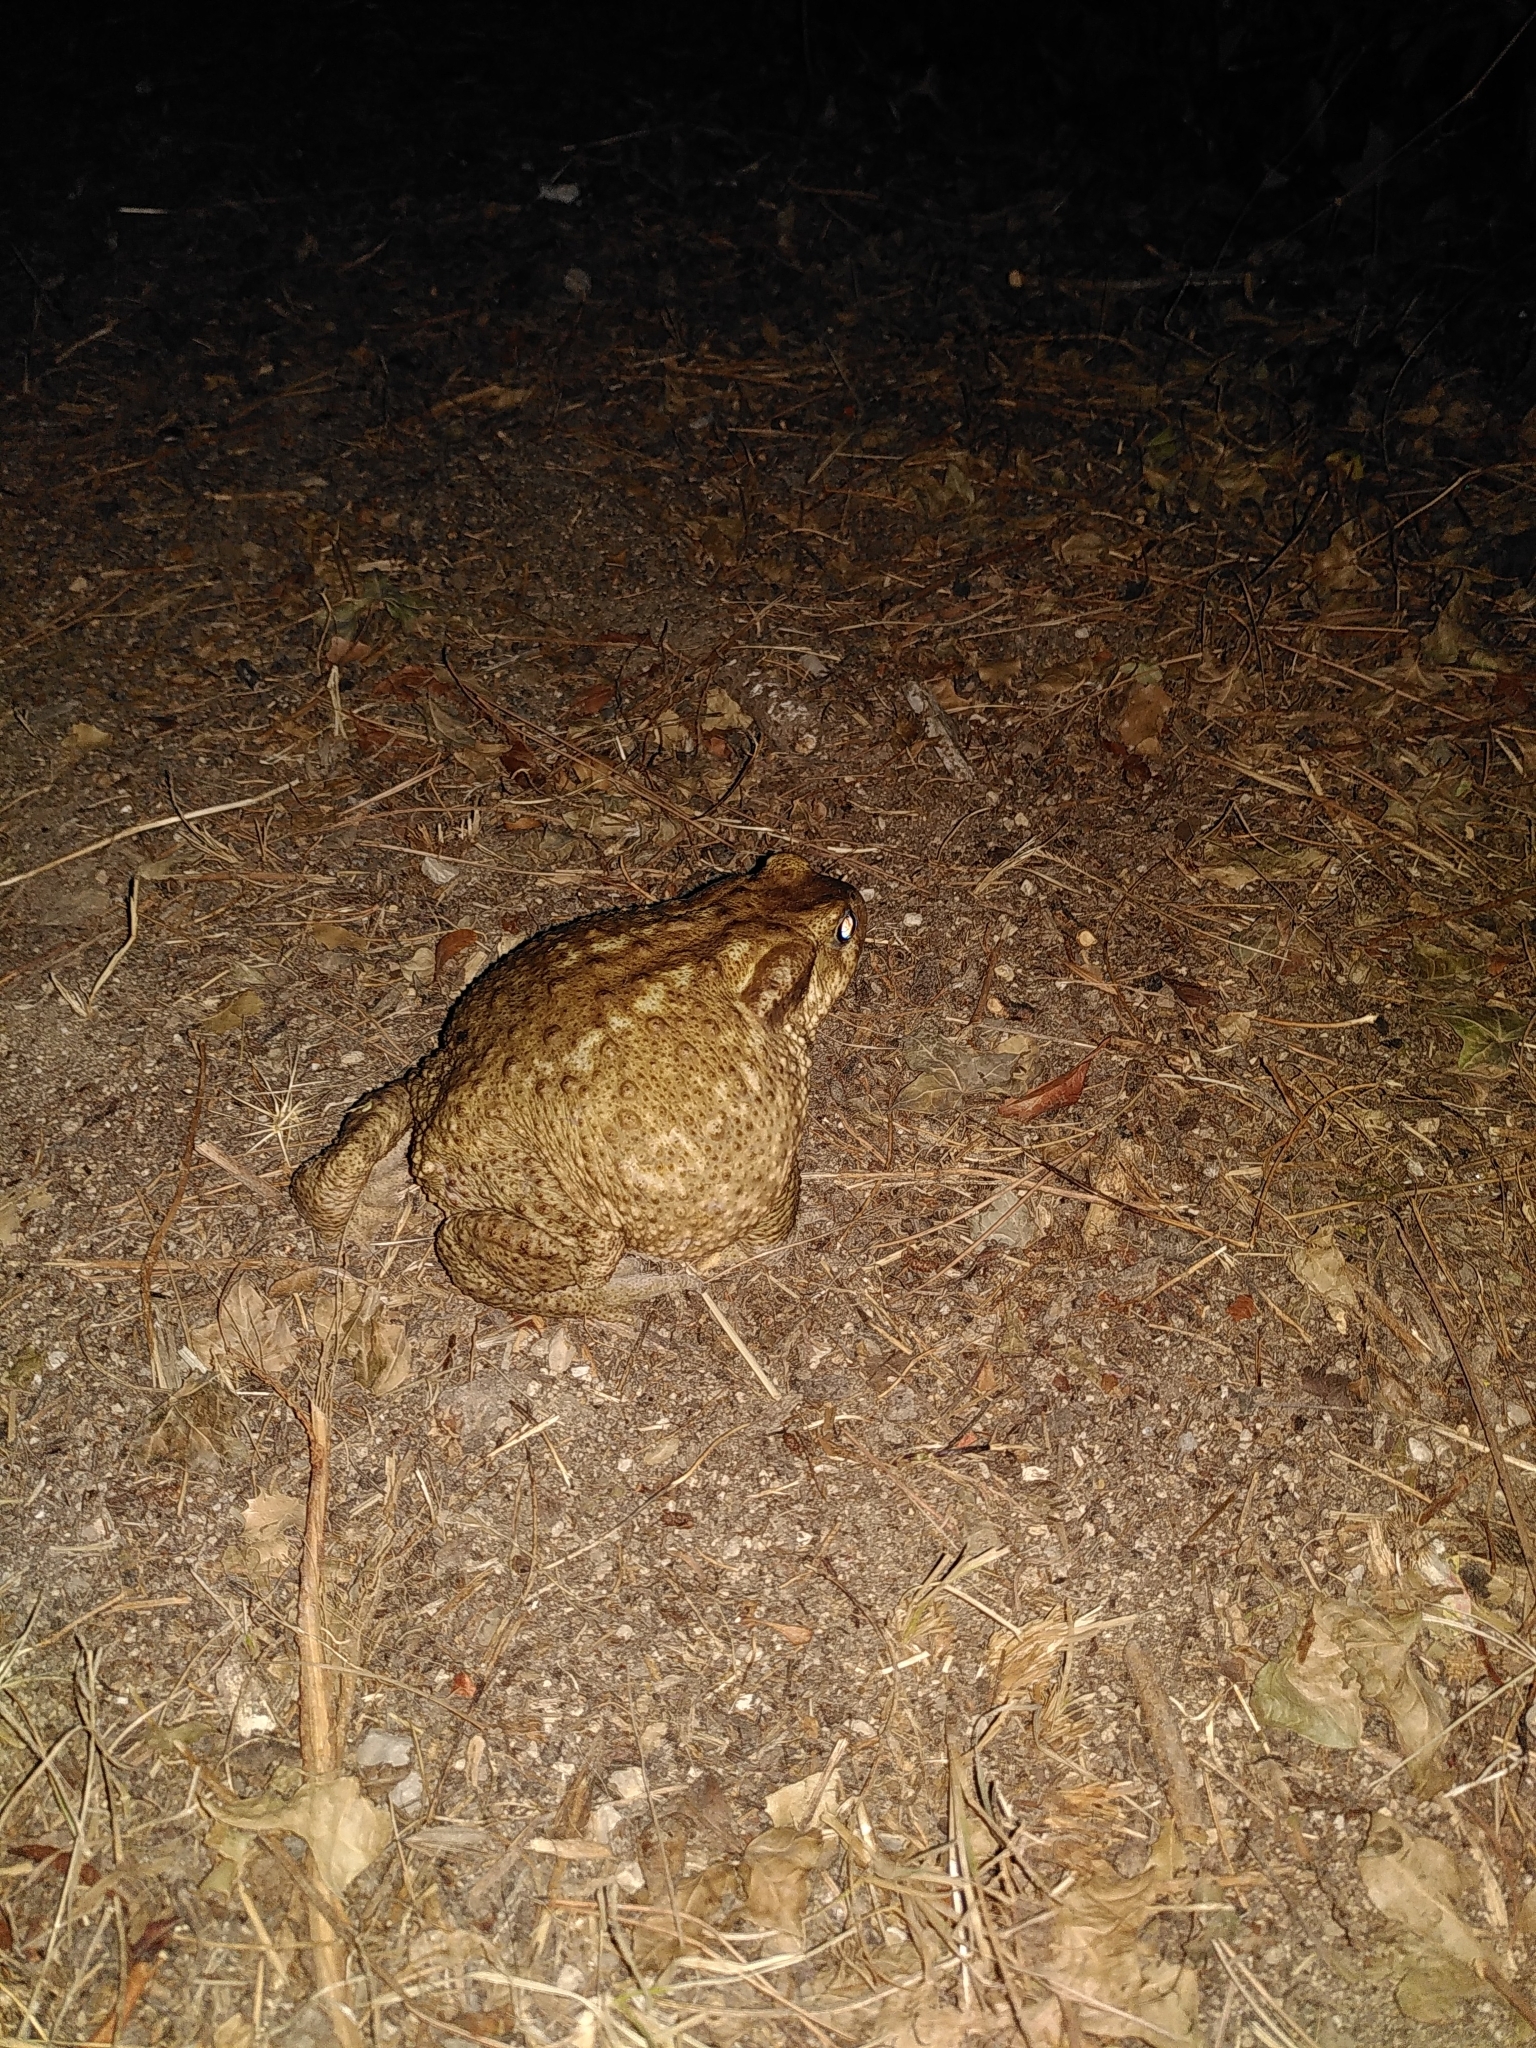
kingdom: Animalia
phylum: Chordata
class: Amphibia
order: Anura
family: Bufonidae
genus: Bufo
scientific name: Bufo spinosus
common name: Western common toad
